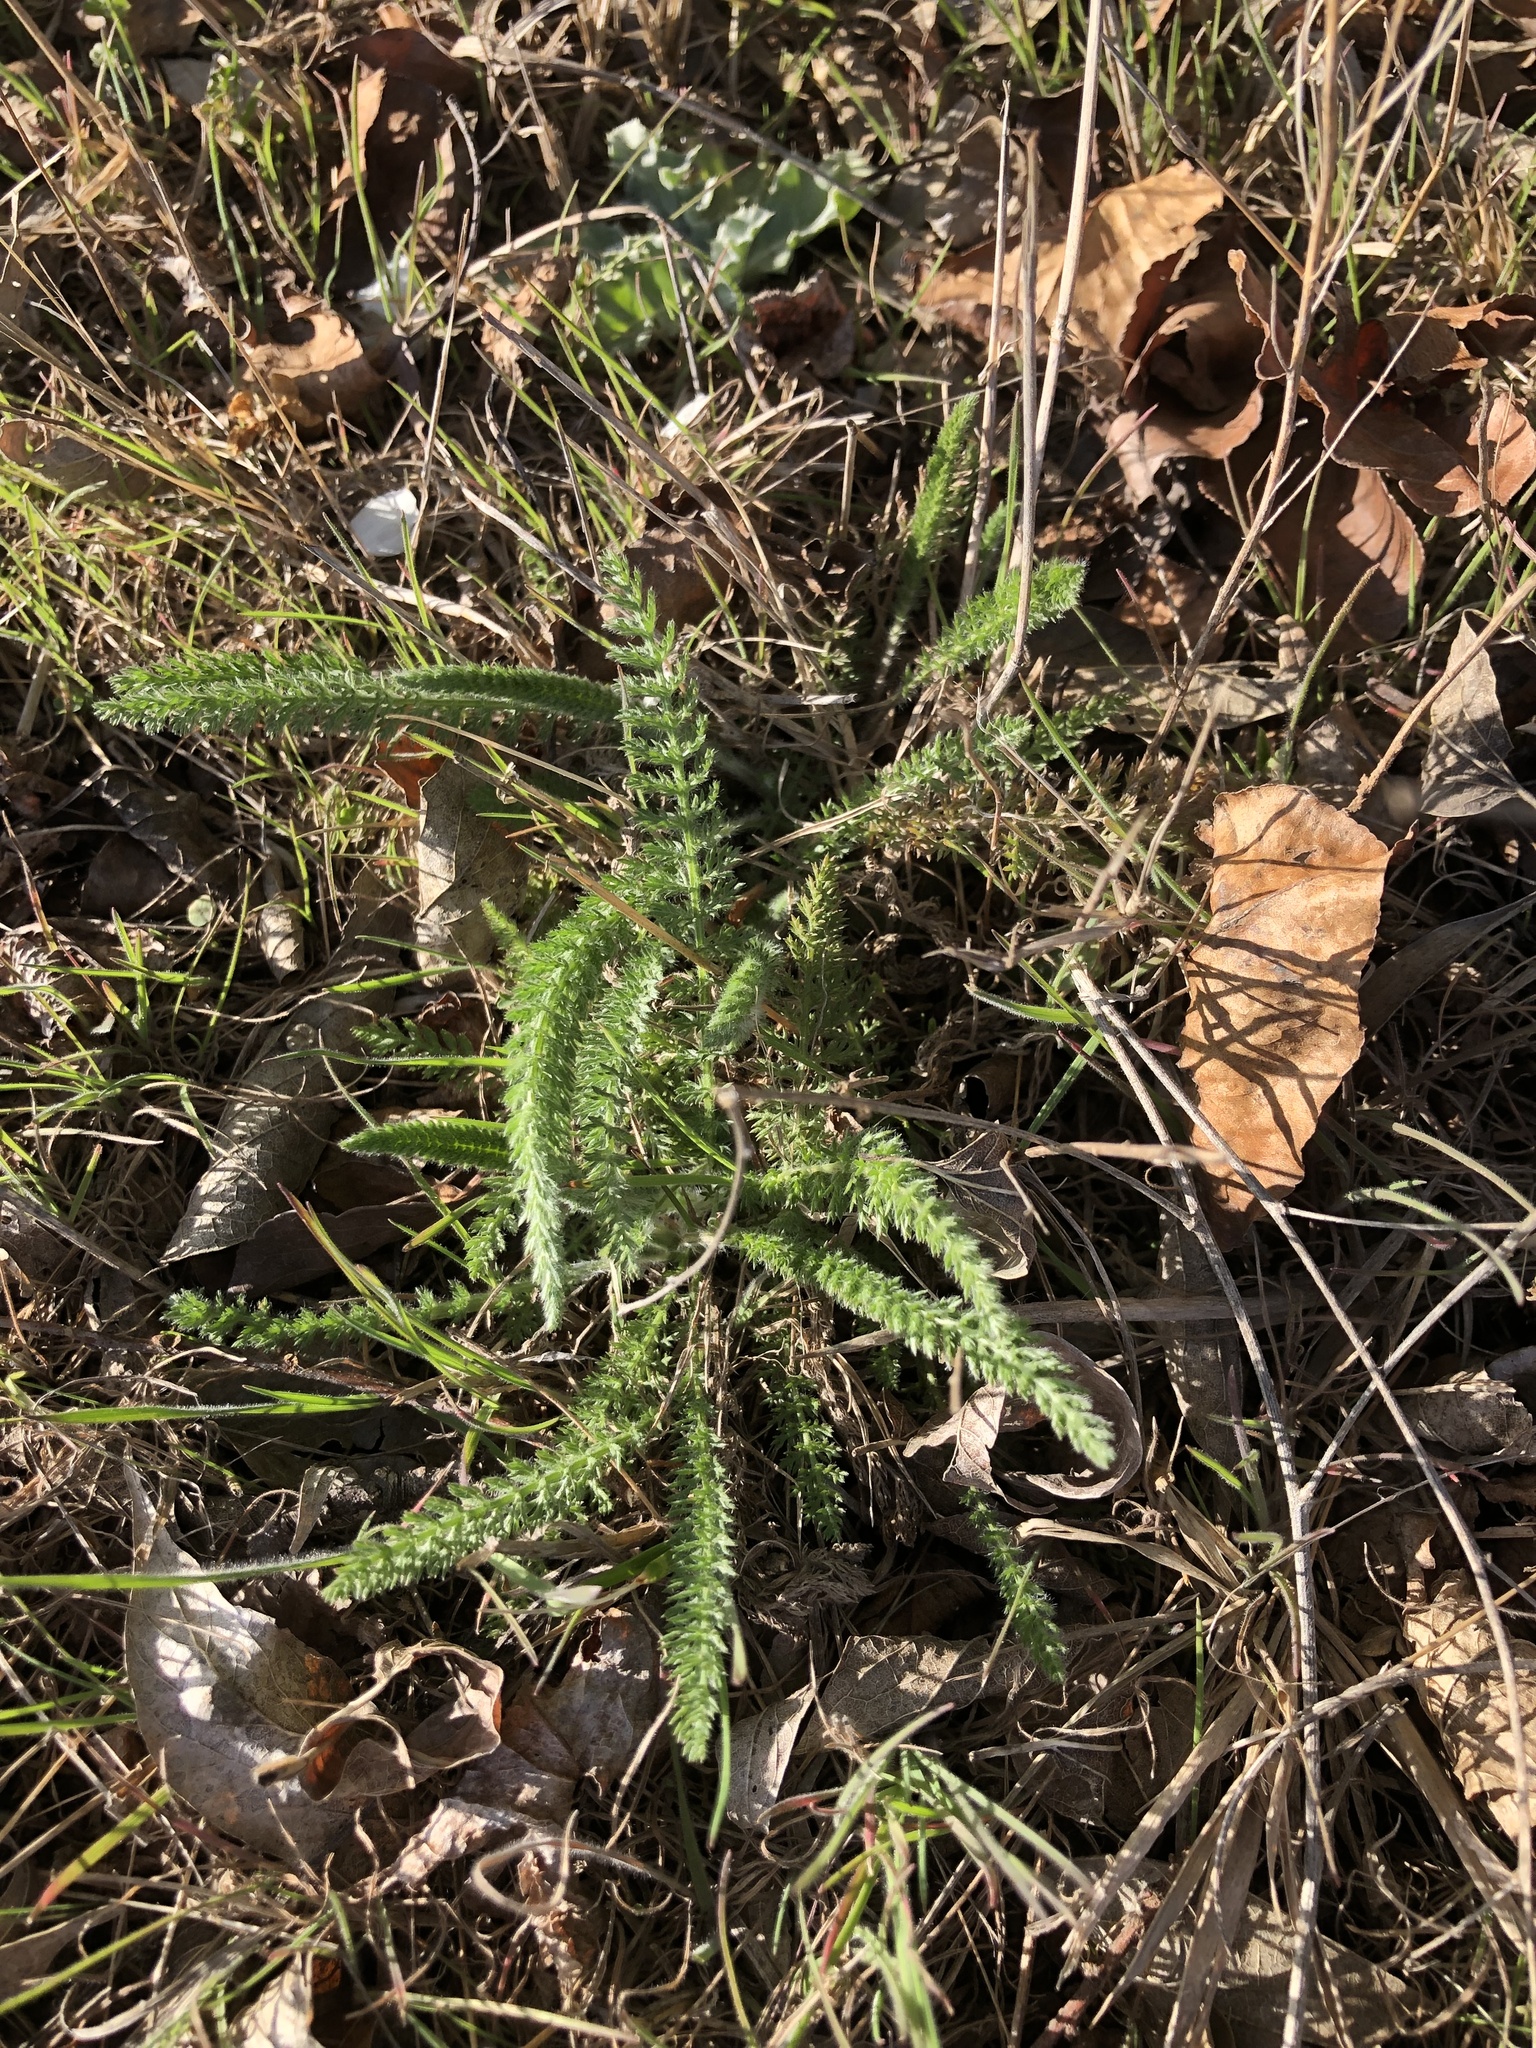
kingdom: Plantae
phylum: Tracheophyta
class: Magnoliopsida
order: Asterales
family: Asteraceae
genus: Achillea
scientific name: Achillea millefolium
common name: Yarrow
